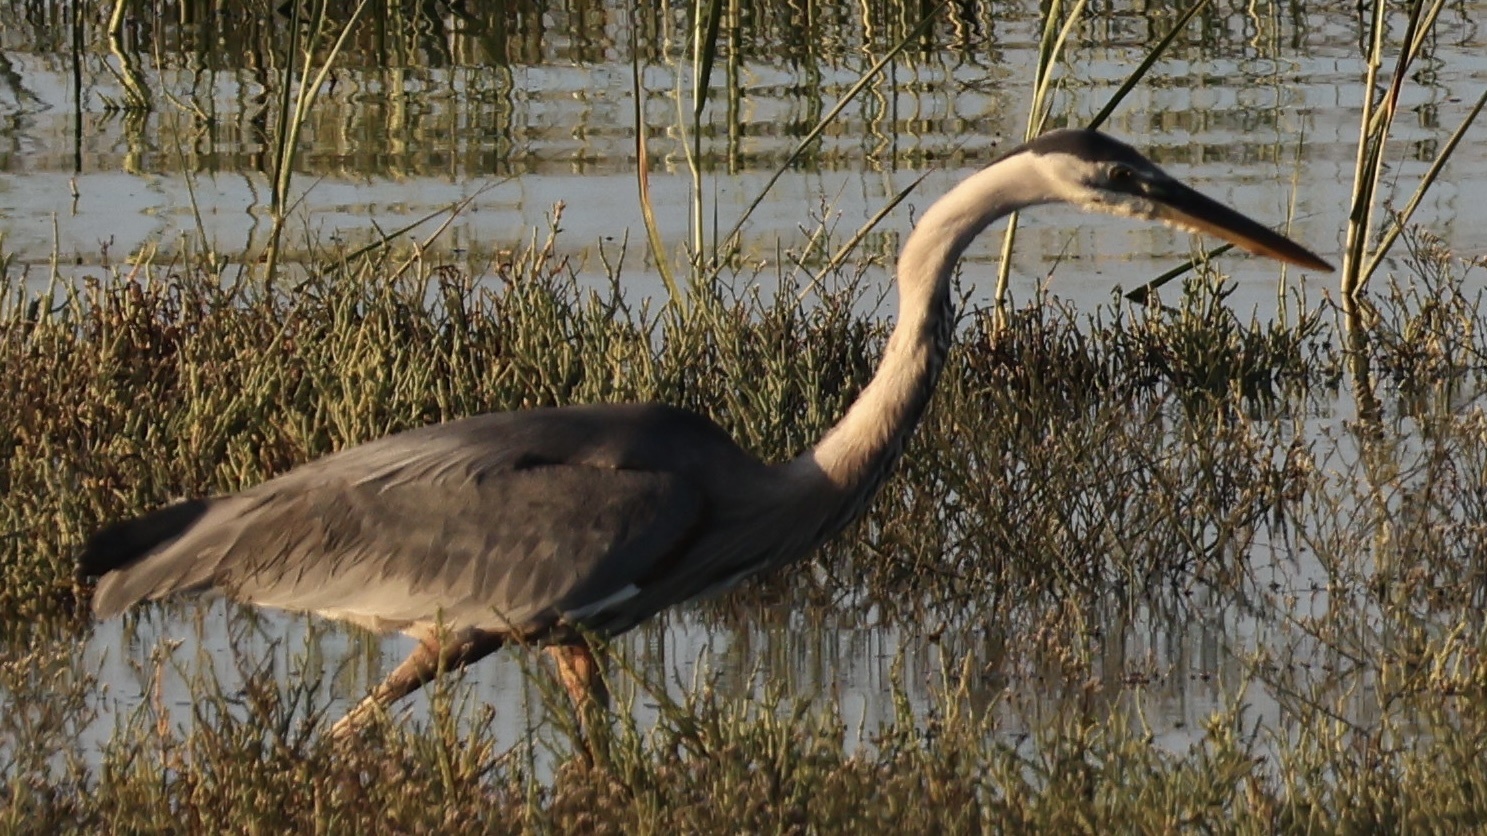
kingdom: Animalia
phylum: Chordata
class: Aves
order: Pelecaniformes
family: Ardeidae
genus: Ardea
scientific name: Ardea herodias
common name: Great blue heron
